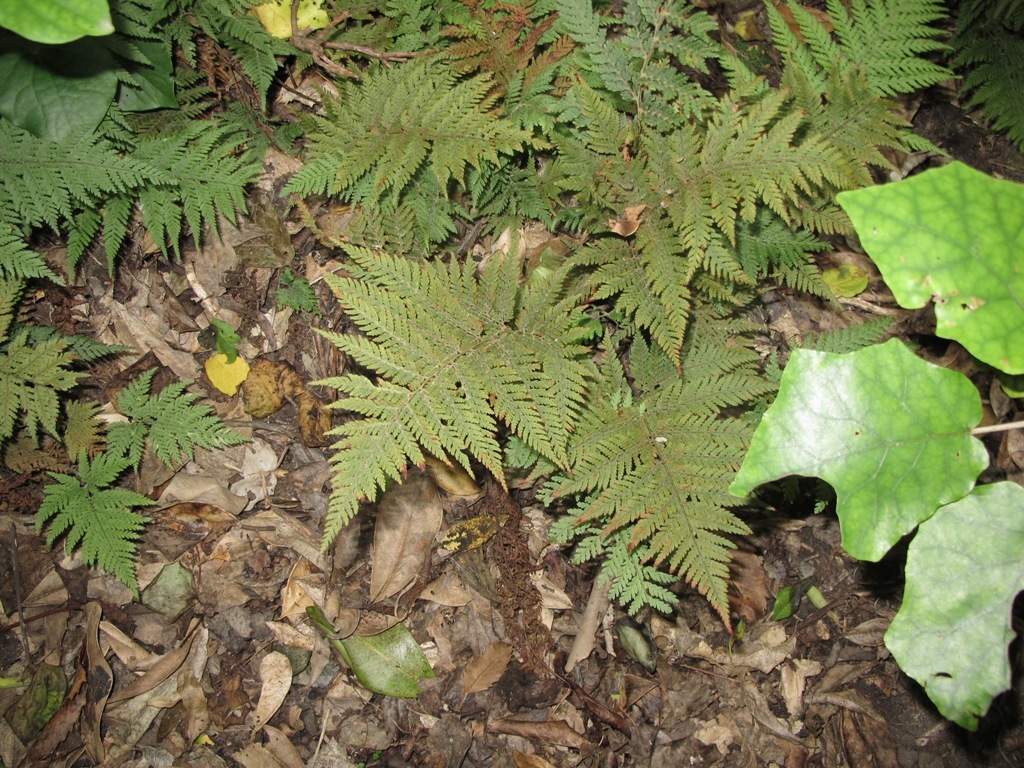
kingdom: Plantae
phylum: Tracheophyta
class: Polypodiopsida
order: Polypodiales
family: Dryopteridaceae
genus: Parapolystichum
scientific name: Parapolystichum microsorum
